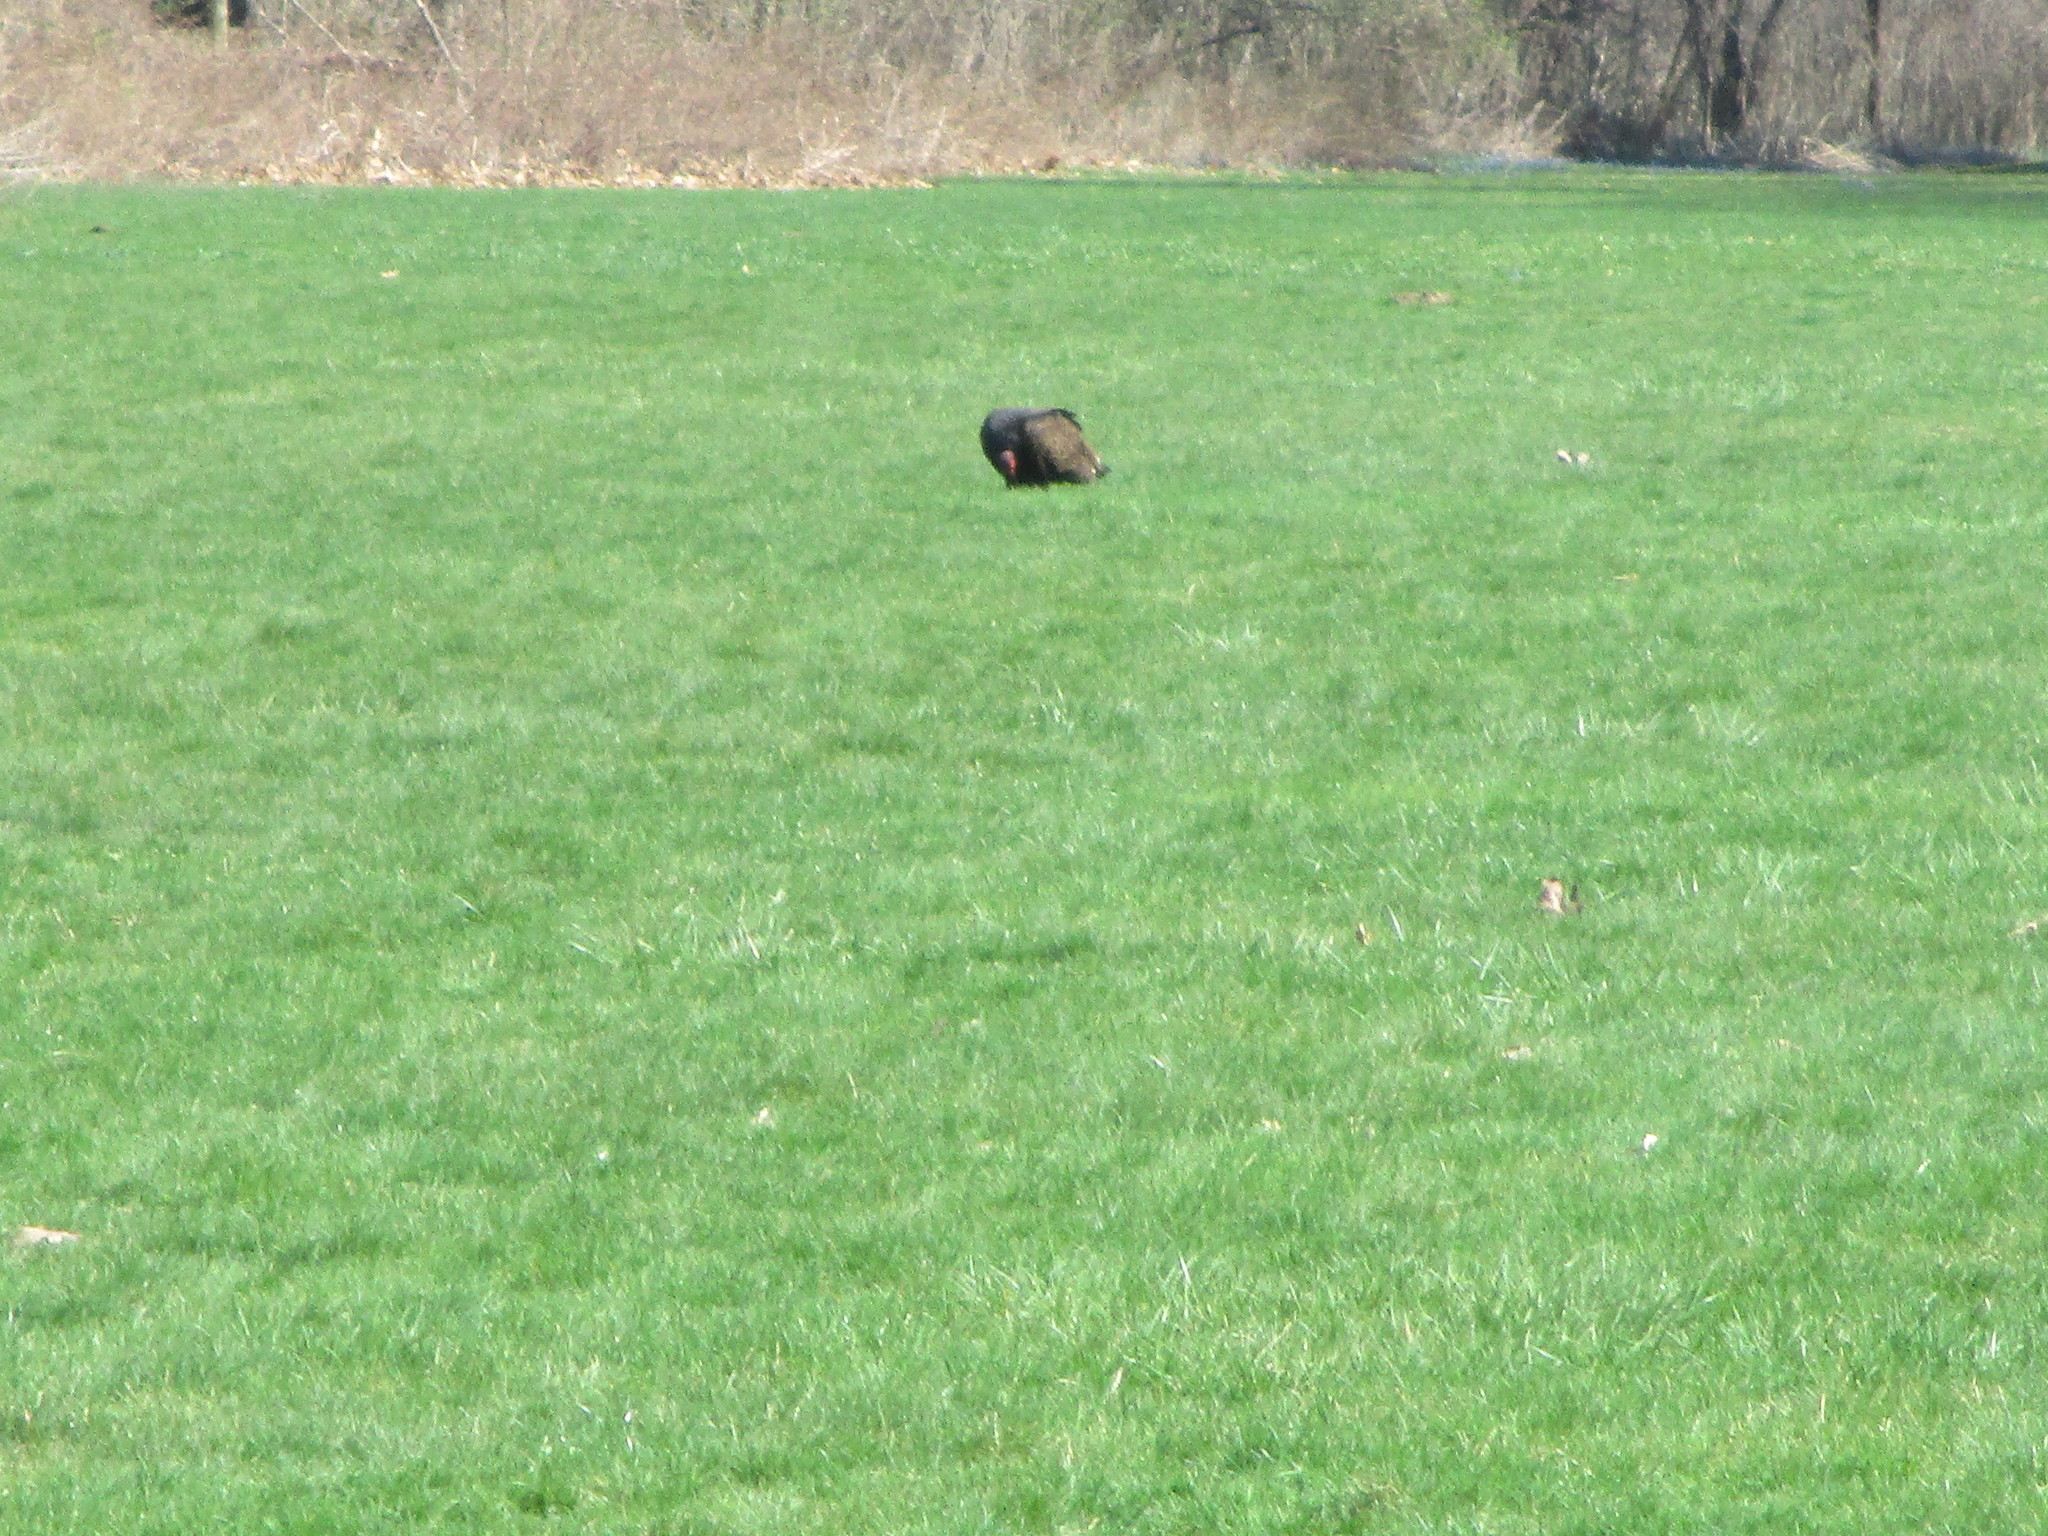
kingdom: Animalia
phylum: Chordata
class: Aves
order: Accipitriformes
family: Cathartidae
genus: Cathartes
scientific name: Cathartes aura
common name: Turkey vulture
